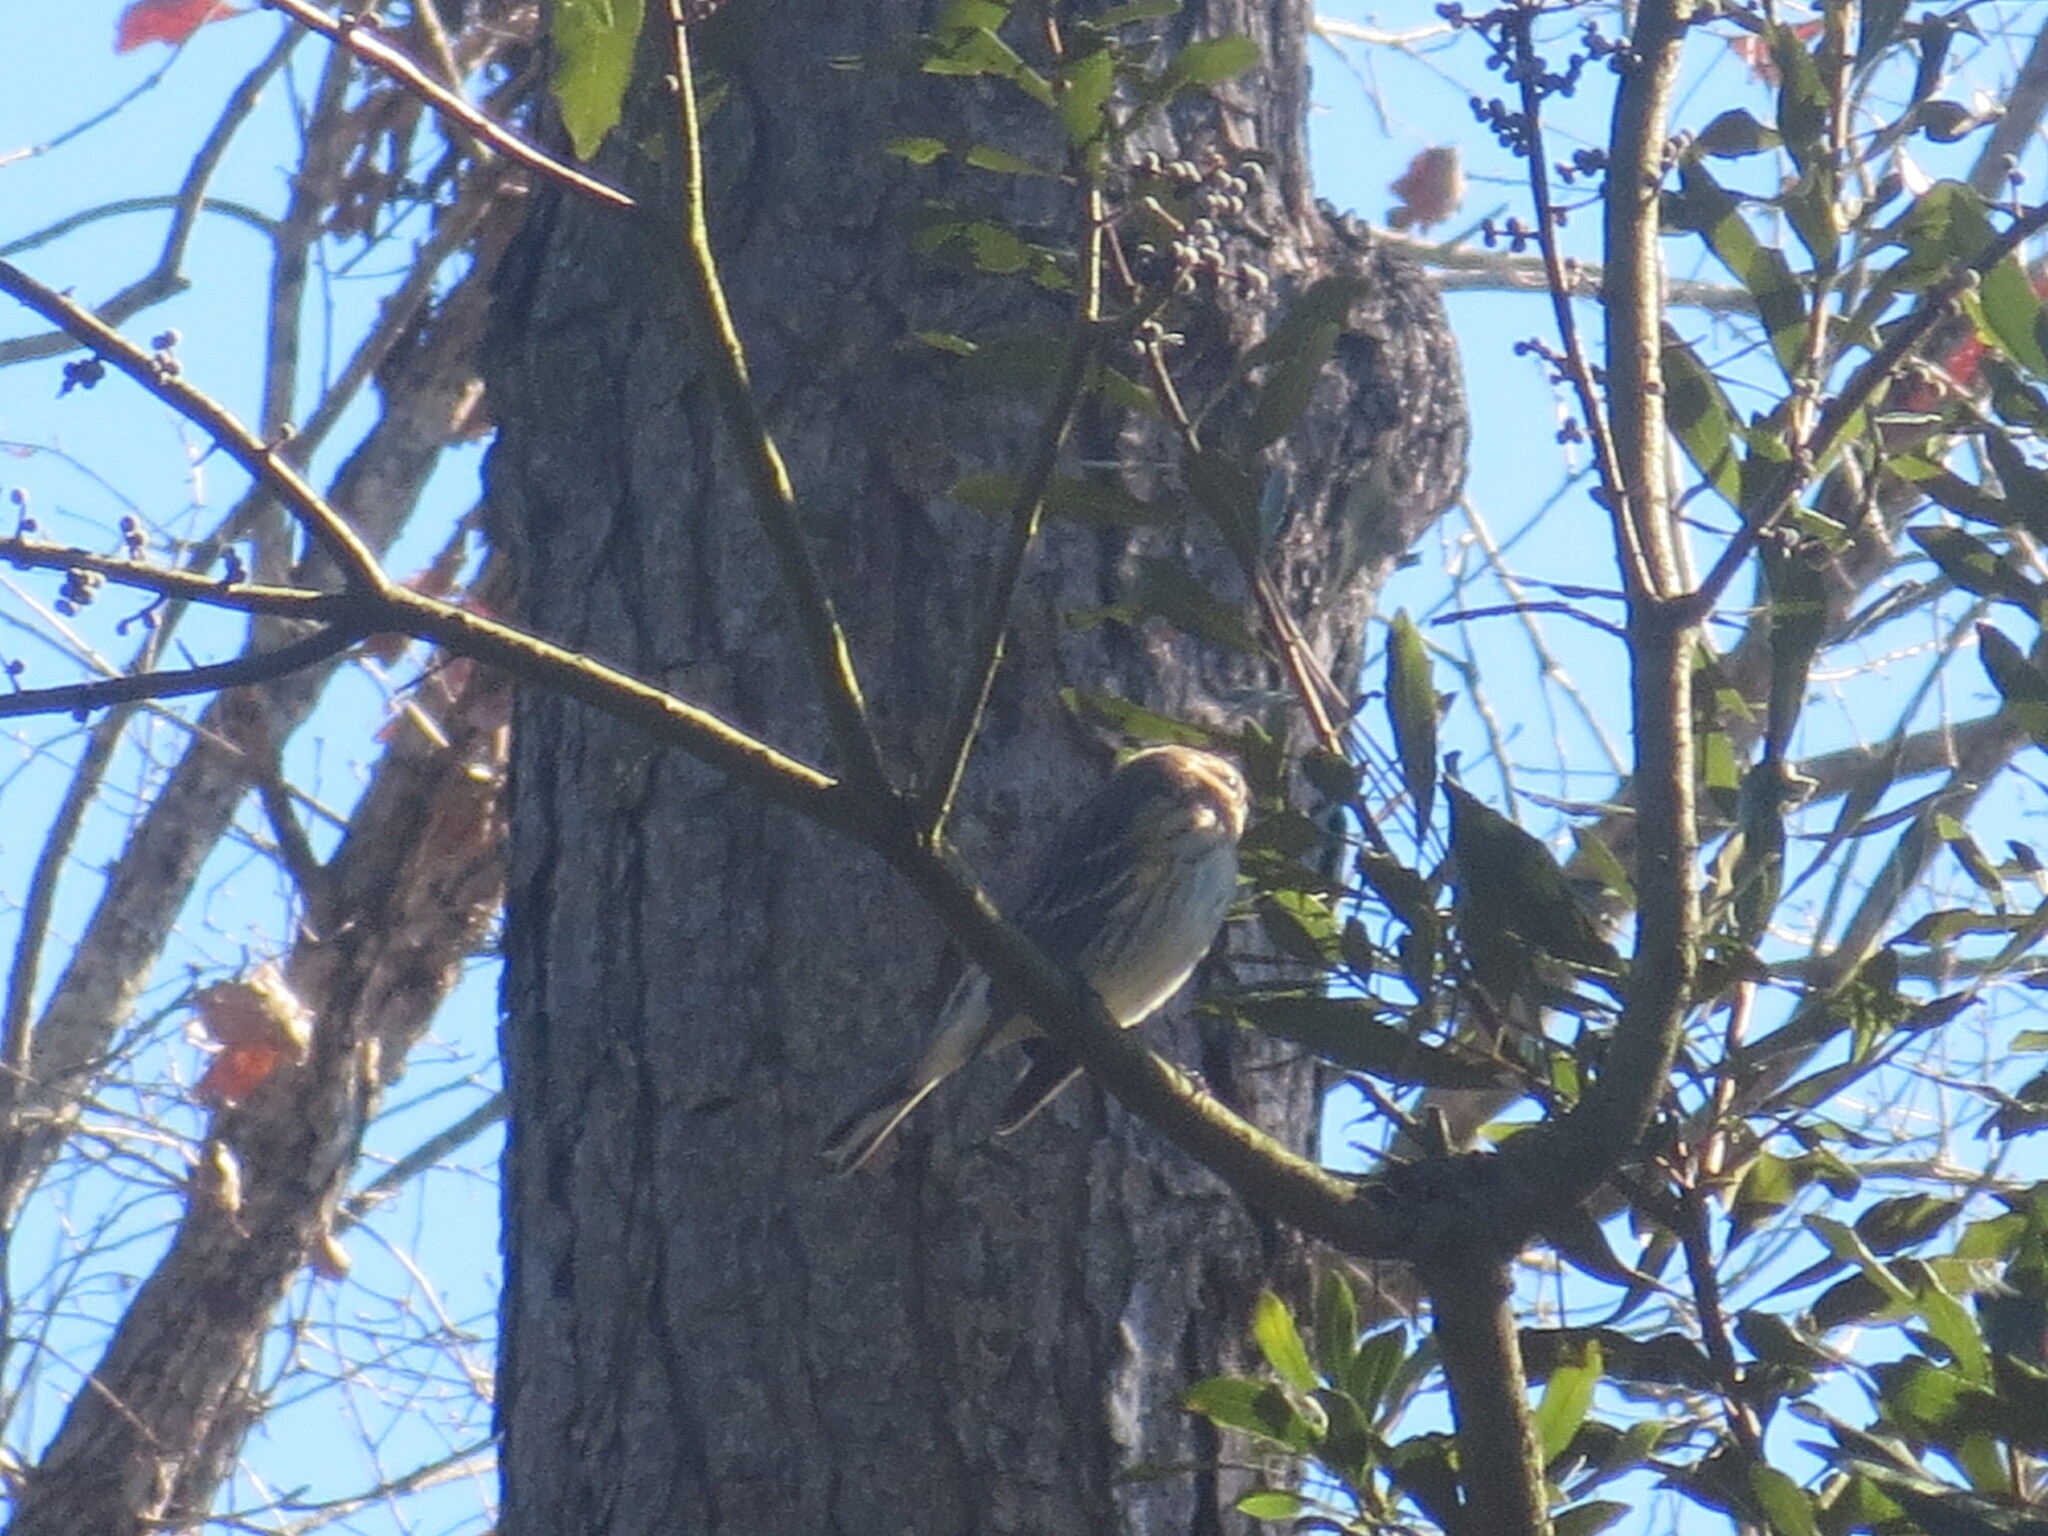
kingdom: Animalia
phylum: Chordata
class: Aves
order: Passeriformes
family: Parulidae
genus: Setophaga
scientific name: Setophaga coronata
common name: Myrtle warbler
